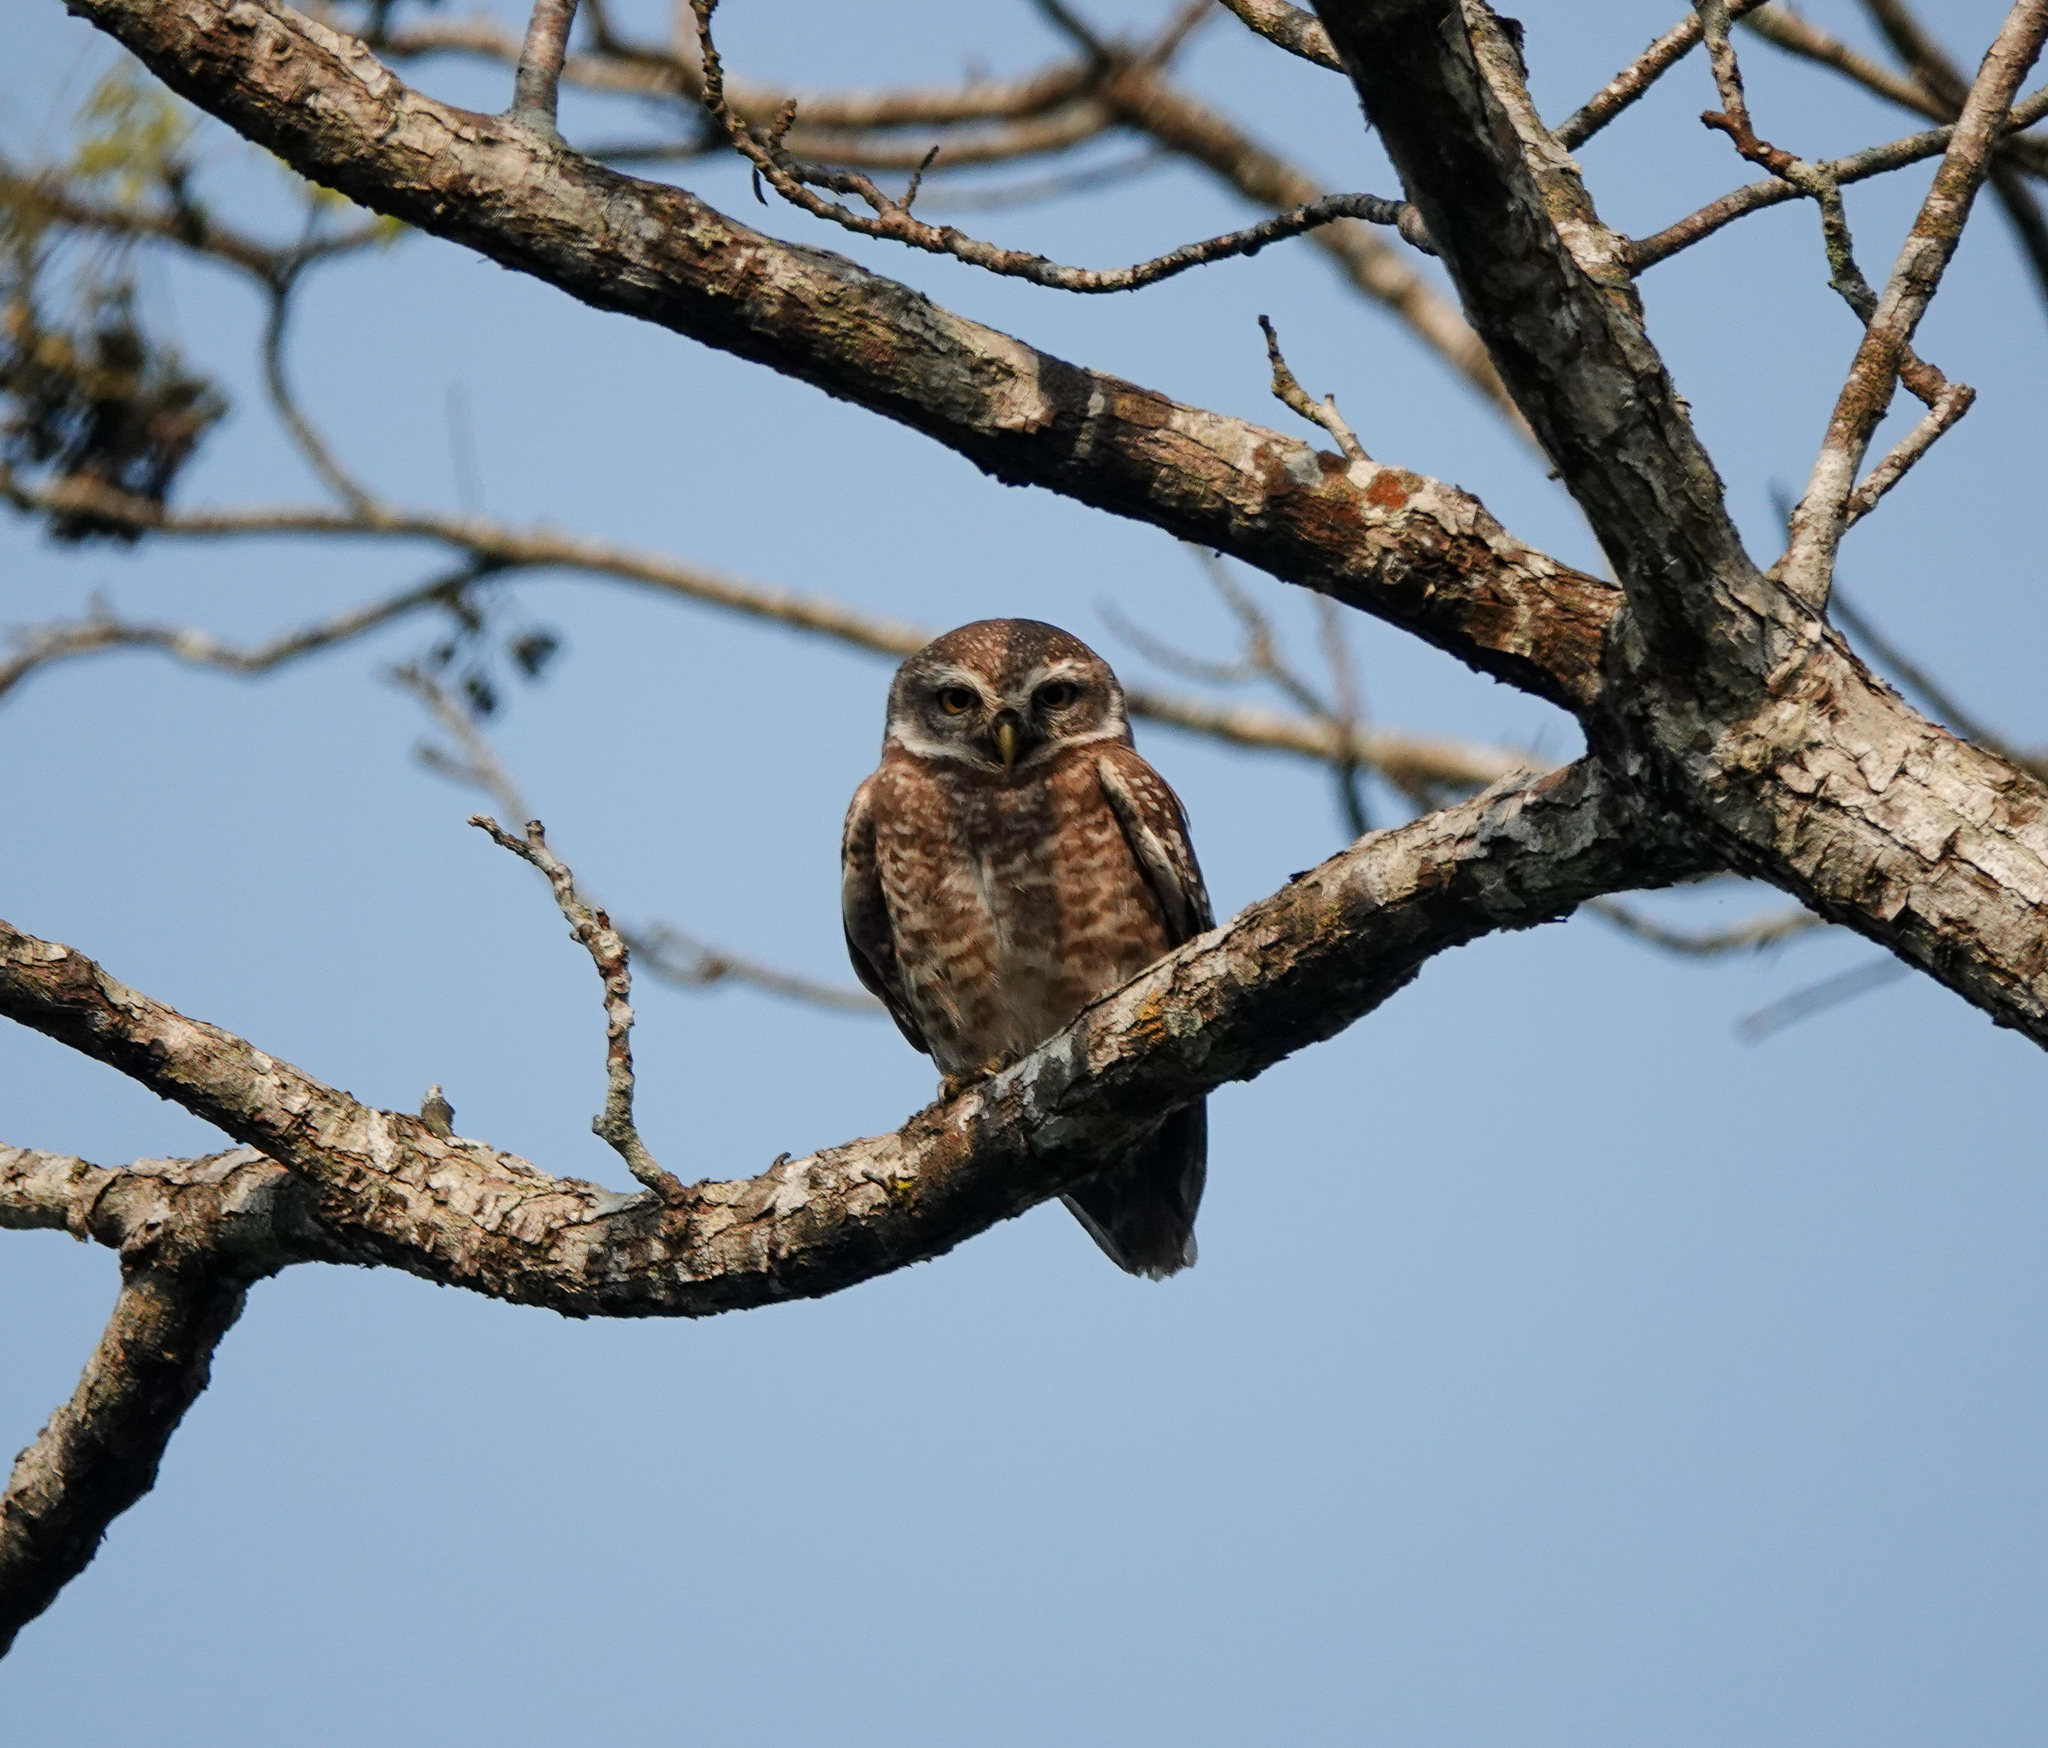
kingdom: Animalia
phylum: Chordata
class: Aves
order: Strigiformes
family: Strigidae
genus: Athene
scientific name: Athene brama
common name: Spotted owlet
